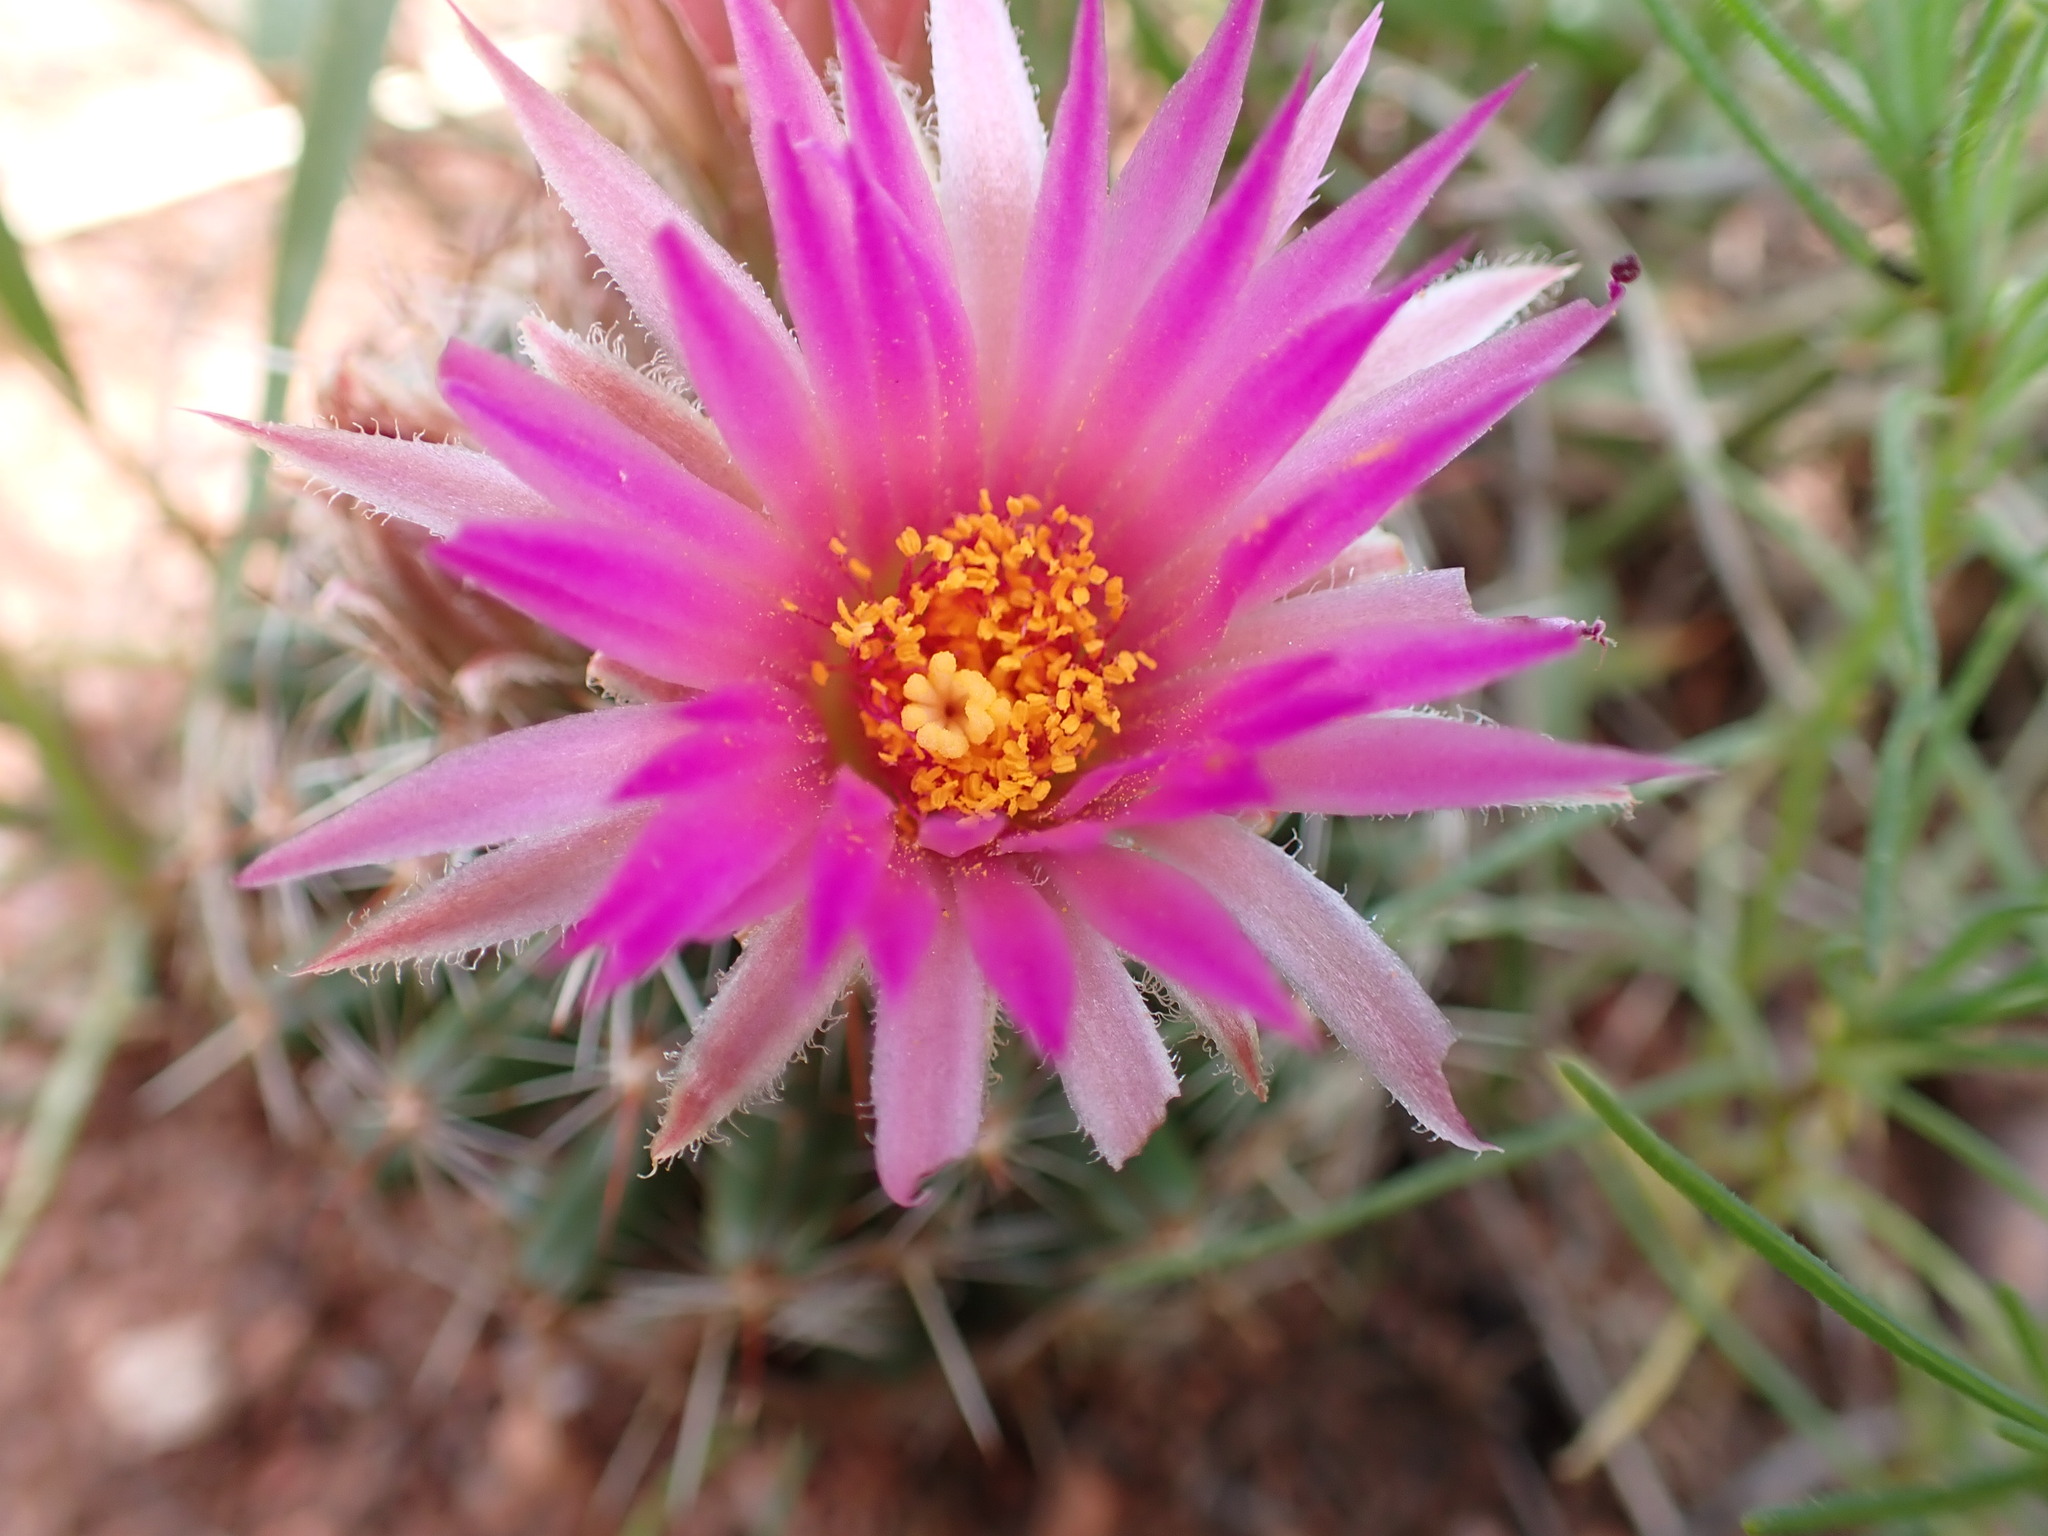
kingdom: Plantae
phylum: Tracheophyta
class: Magnoliopsida
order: Caryophyllales
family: Cactaceae
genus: Pelecyphora
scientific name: Pelecyphora vivipara
